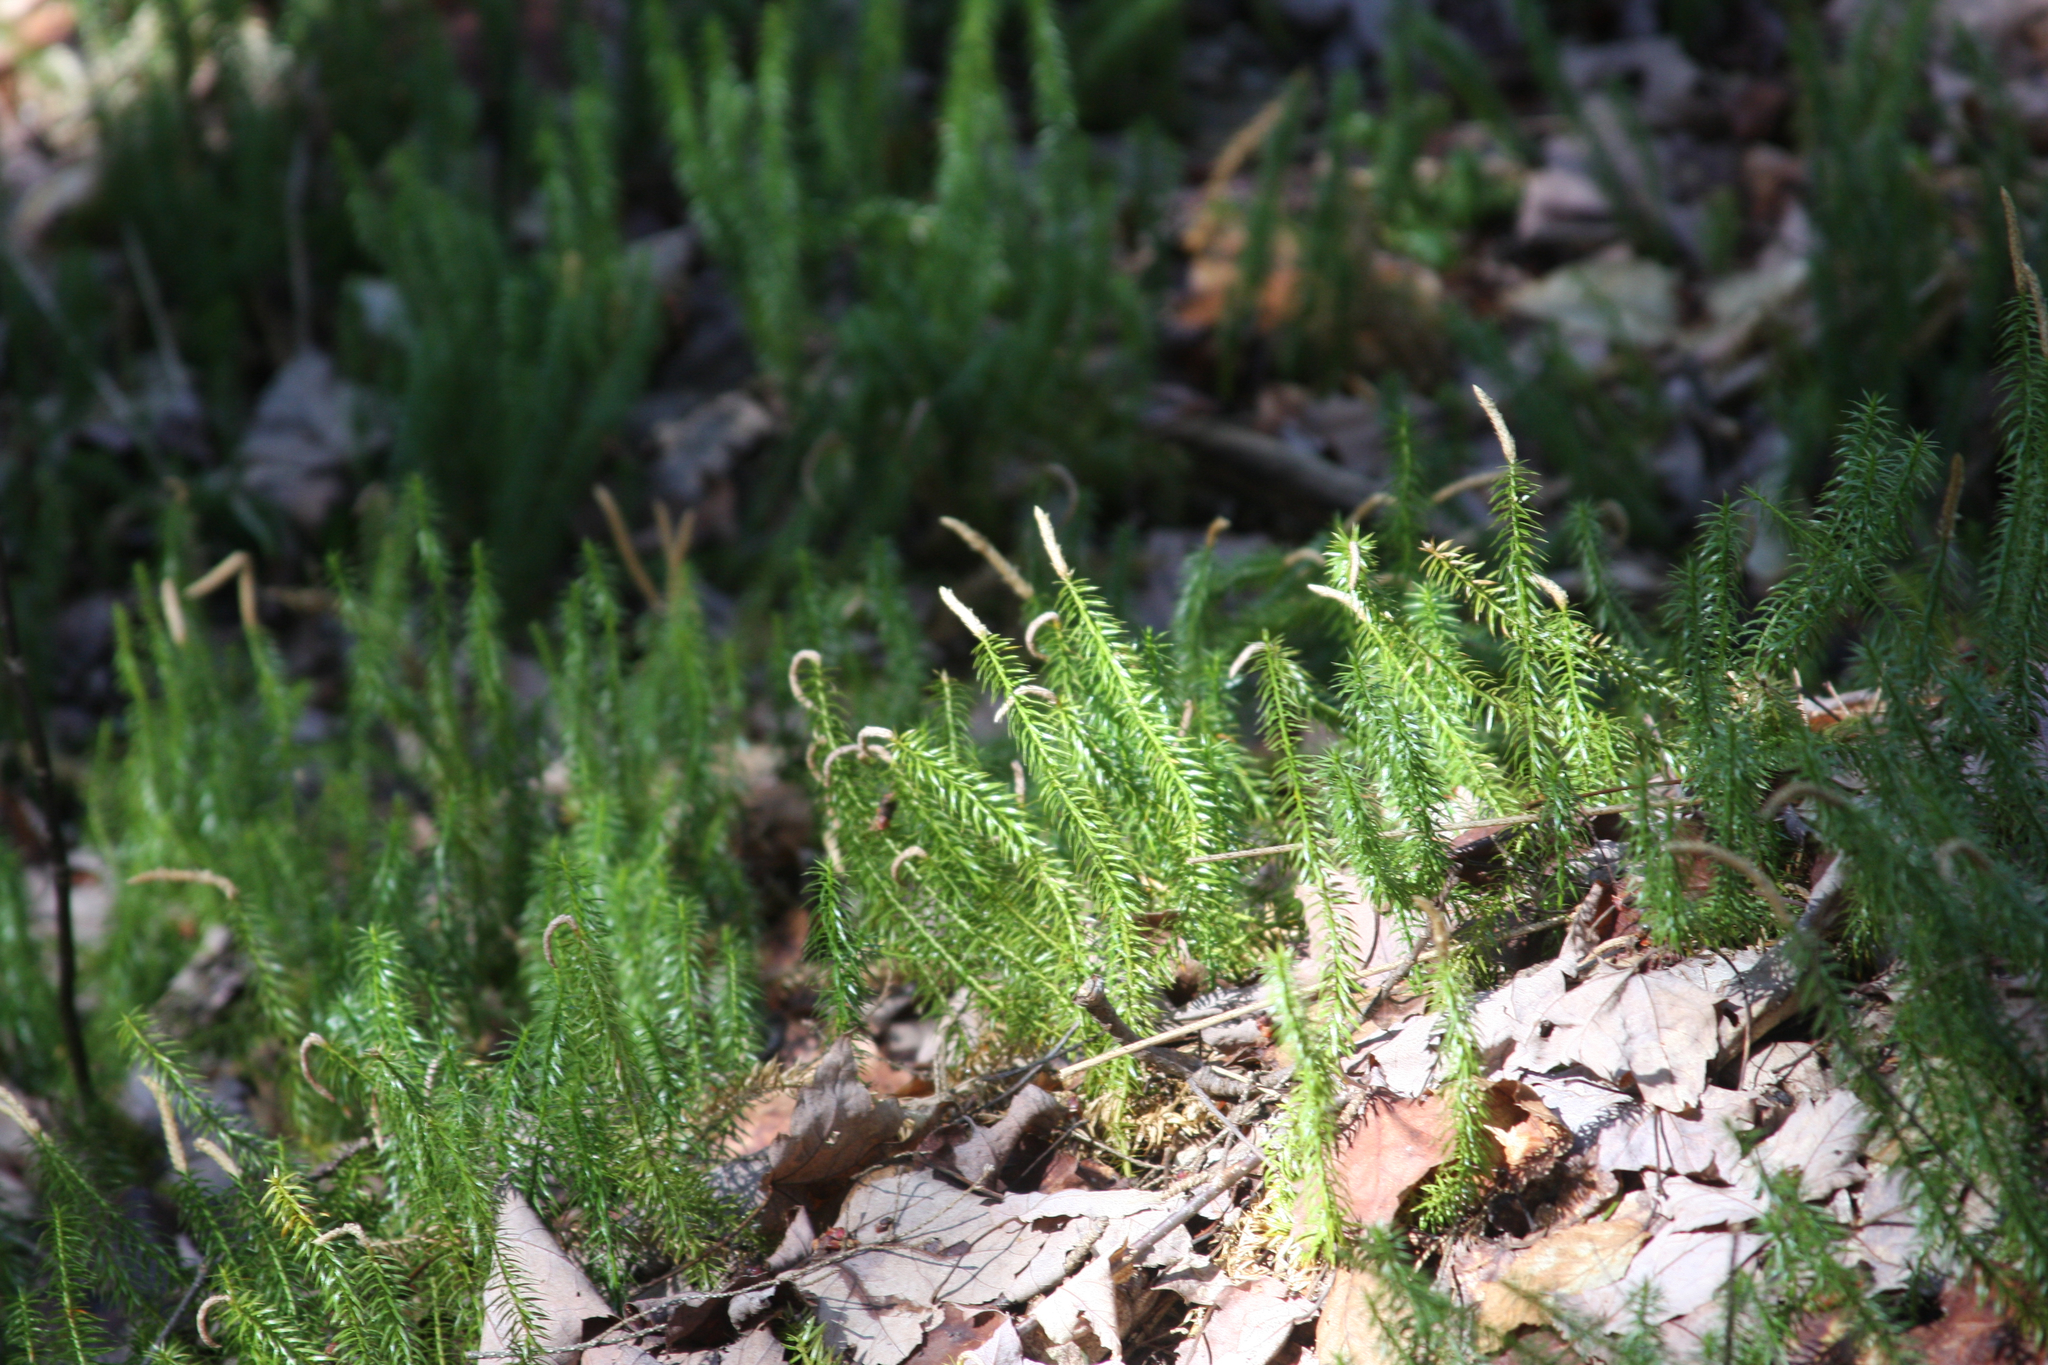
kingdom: Plantae
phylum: Tracheophyta
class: Lycopodiopsida
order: Lycopodiales
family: Lycopodiaceae
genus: Spinulum
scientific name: Spinulum annotinum
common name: Interrupted club-moss
